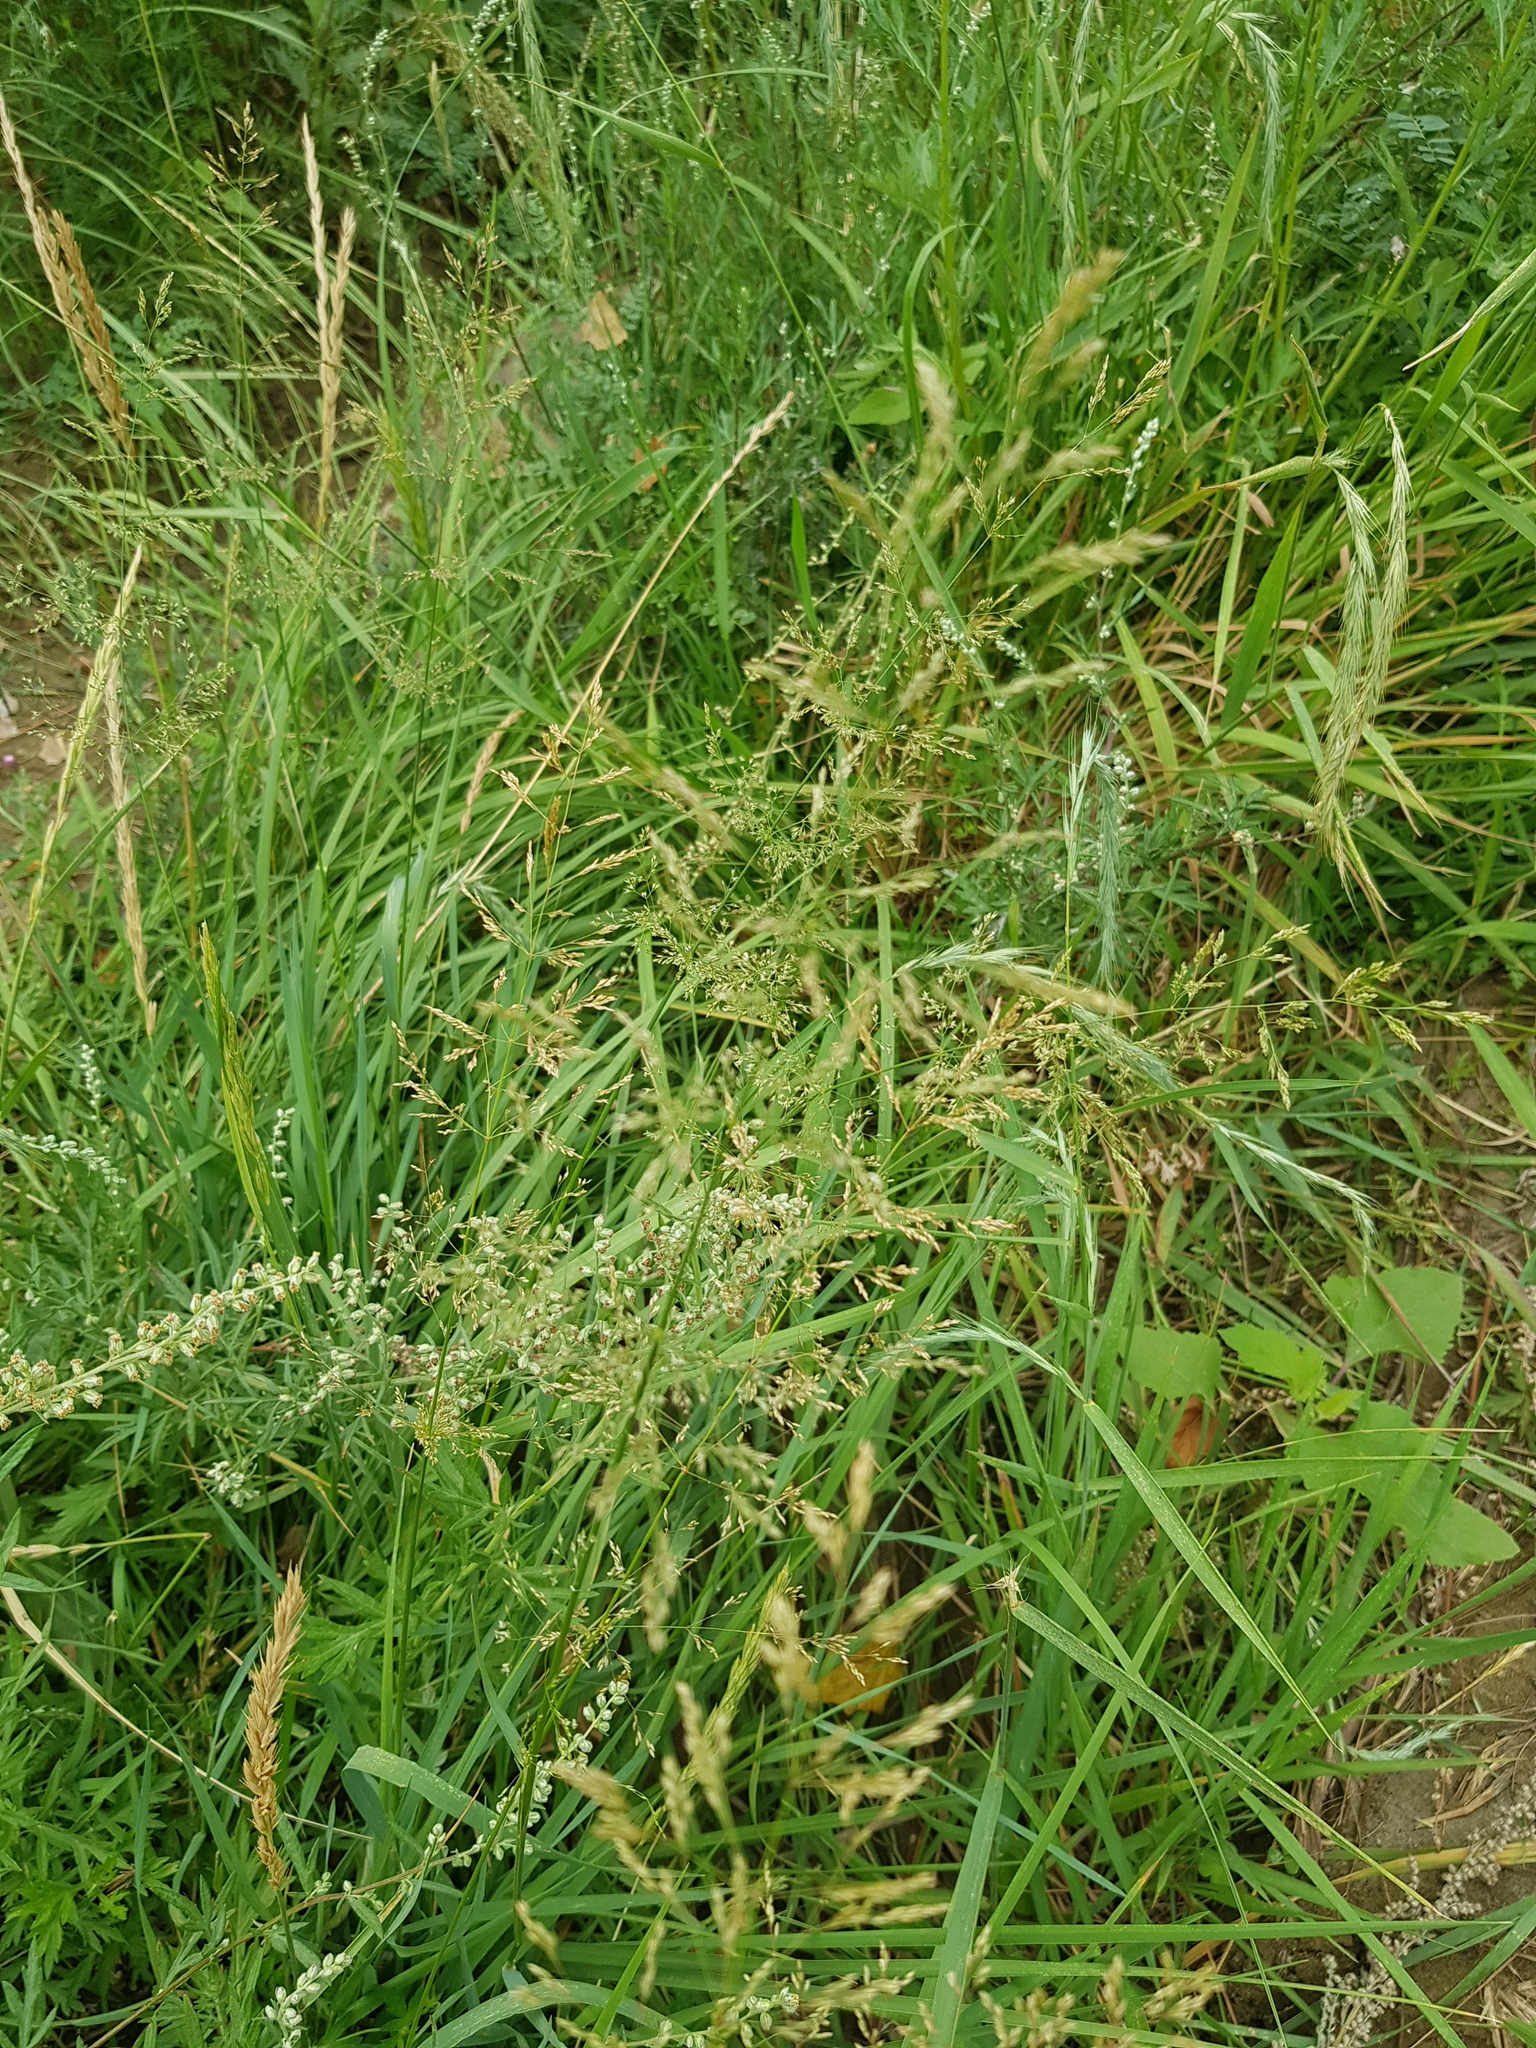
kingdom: Plantae
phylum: Tracheophyta
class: Liliopsida
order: Poales
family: Poaceae
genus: Elymus
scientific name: Elymus sibiricus
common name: Siberian wildrye
